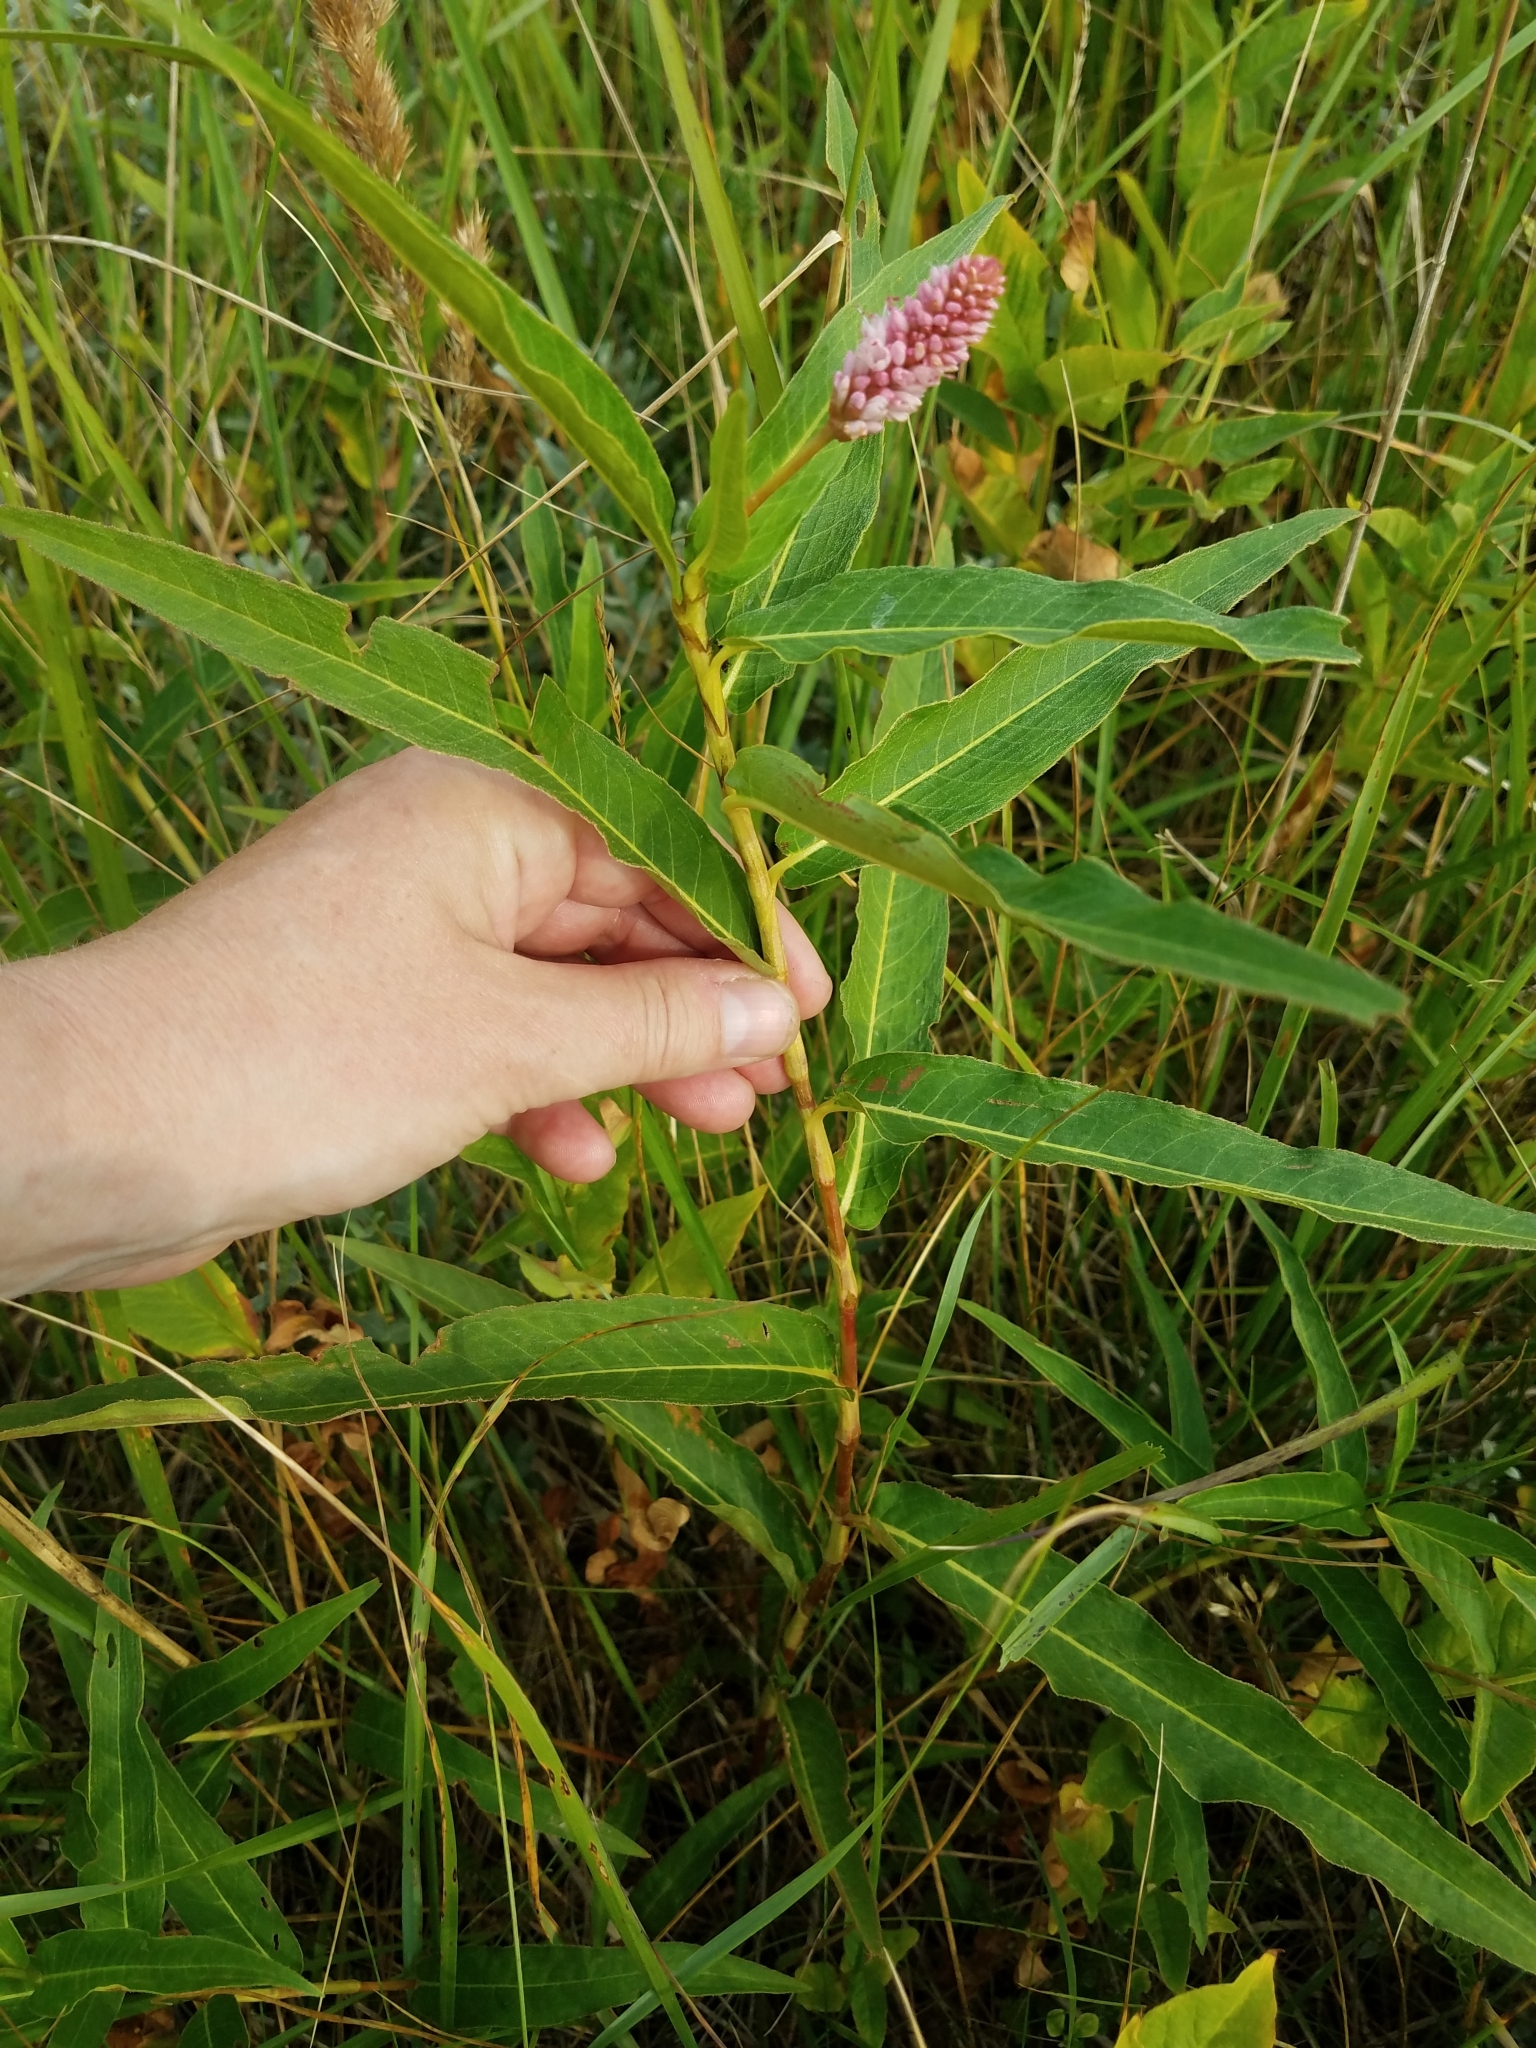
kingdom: Plantae
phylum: Tracheophyta
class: Magnoliopsida
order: Caryophyllales
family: Polygonaceae
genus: Persicaria
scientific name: Persicaria amphibia
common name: Amphibious bistort
